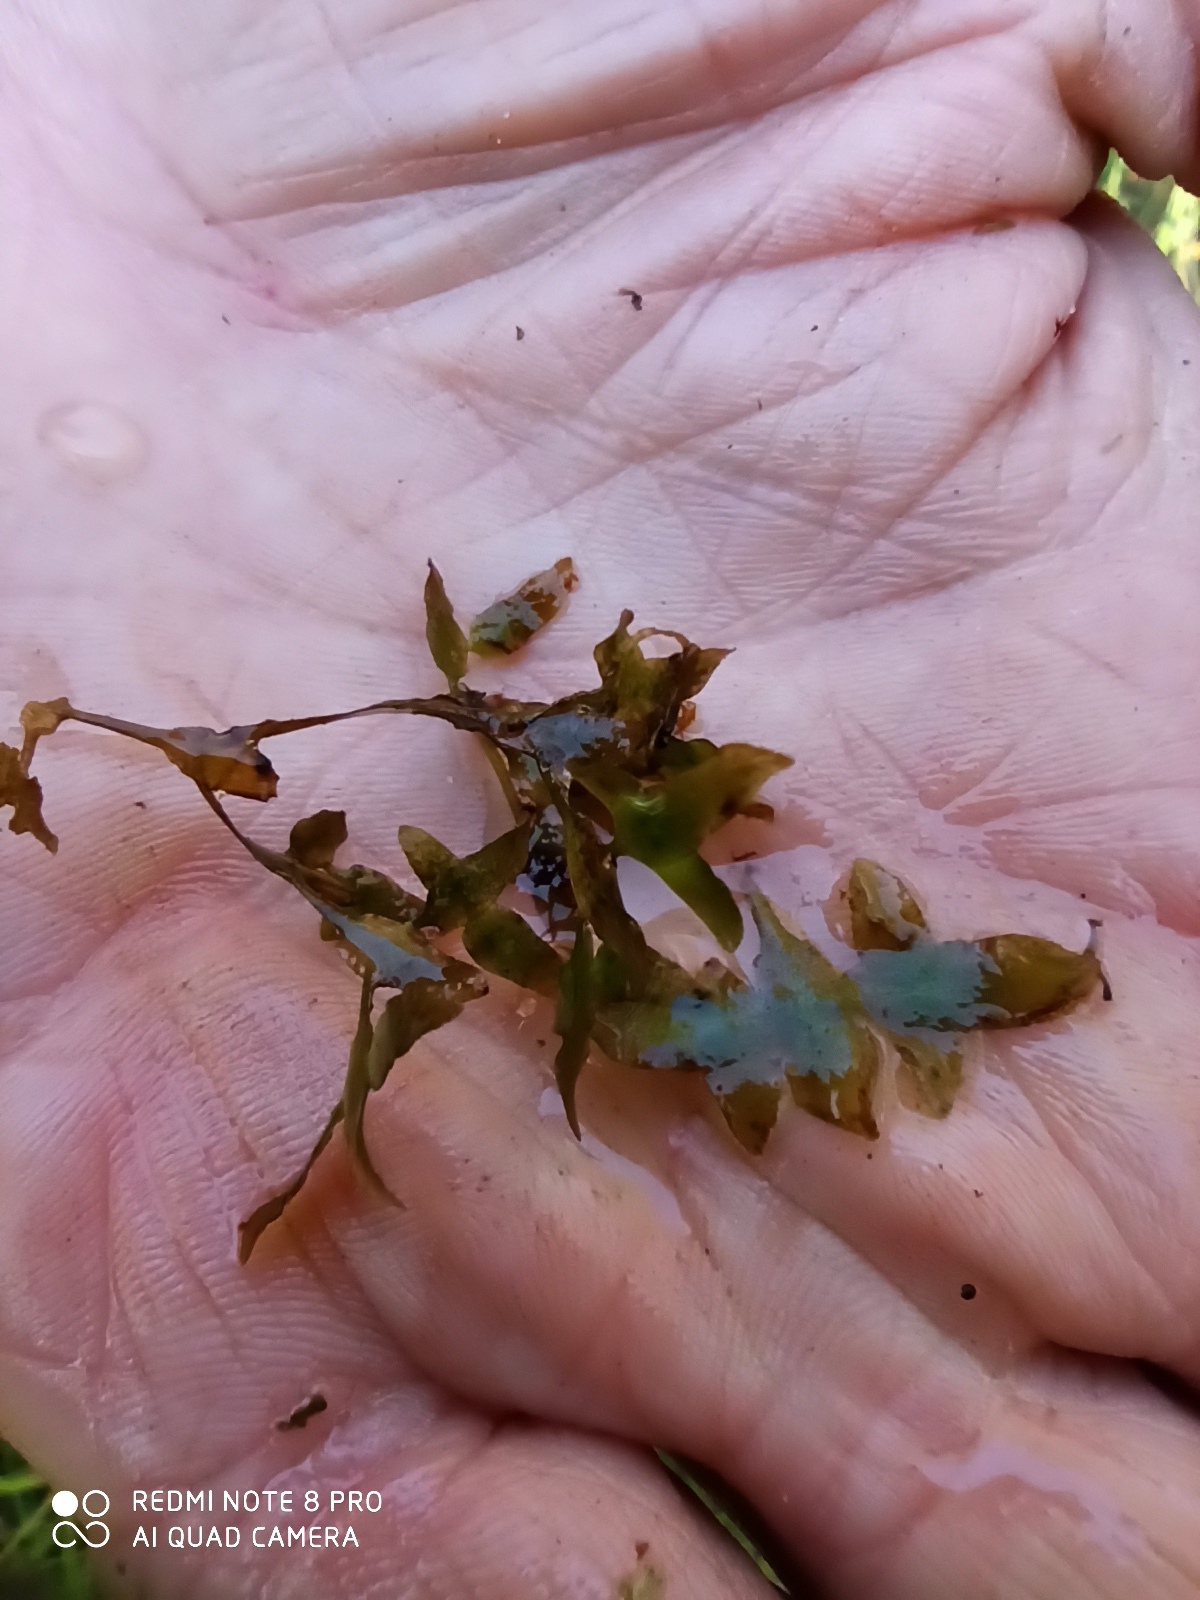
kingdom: Plantae
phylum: Tracheophyta
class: Liliopsida
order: Alismatales
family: Araceae
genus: Lemna
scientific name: Lemna trisulca
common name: Ivy-leaved duckweed
